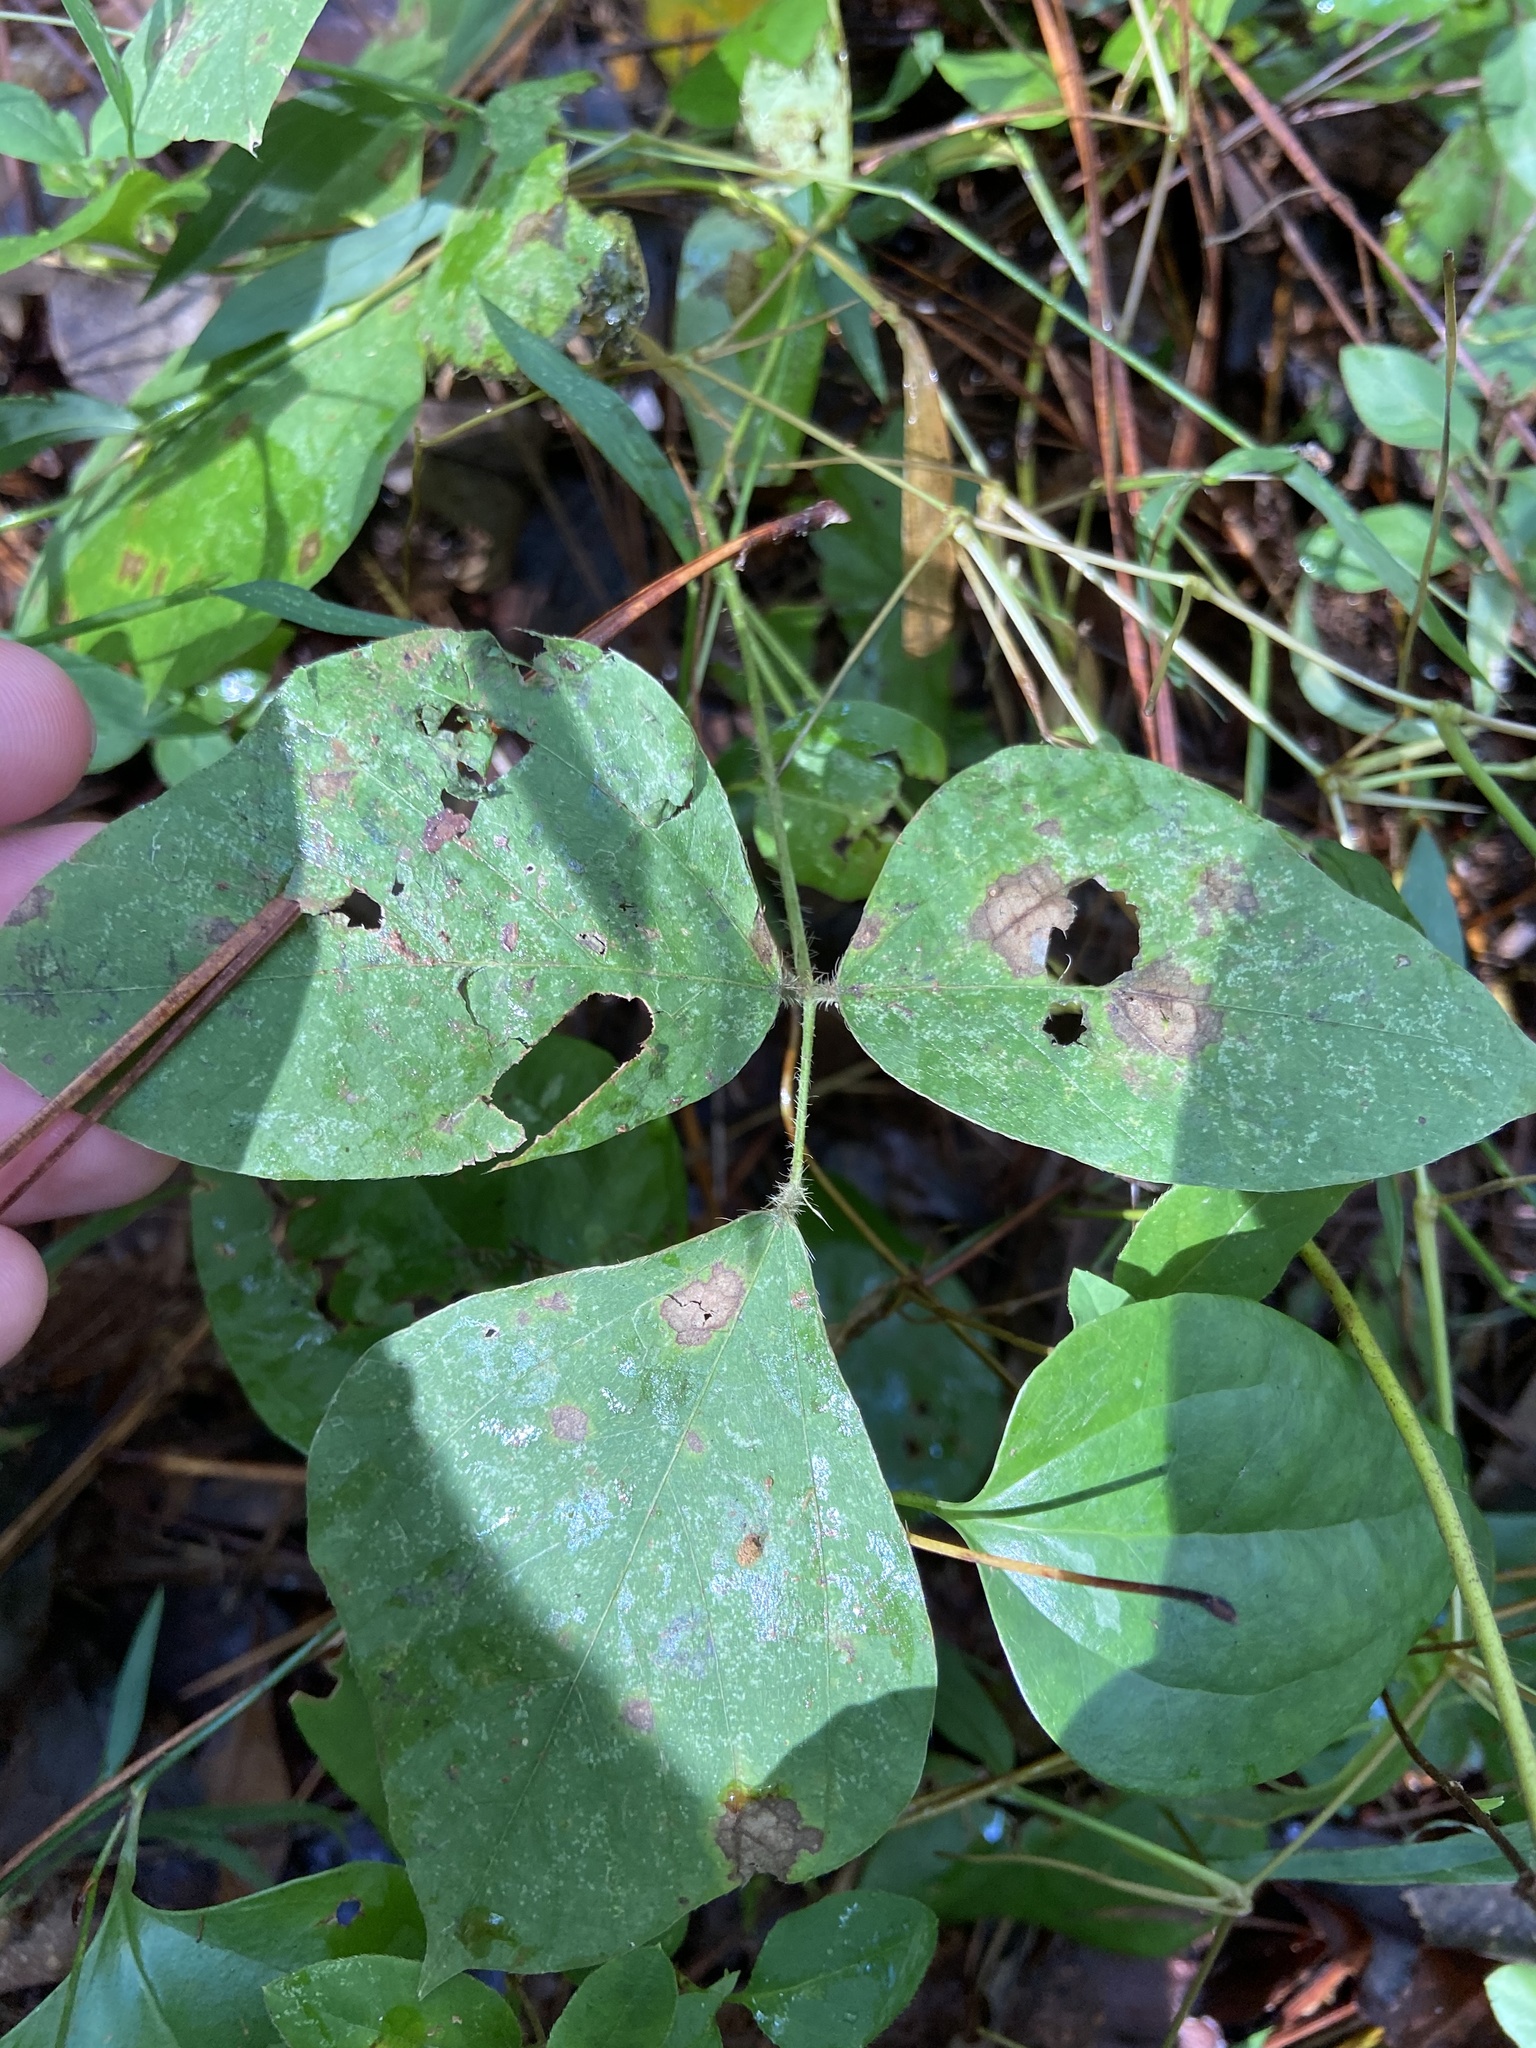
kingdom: Plantae
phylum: Tracheophyta
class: Magnoliopsida
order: Fabales
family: Fabaceae
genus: Pueraria
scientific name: Pueraria montana
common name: Kudzu
